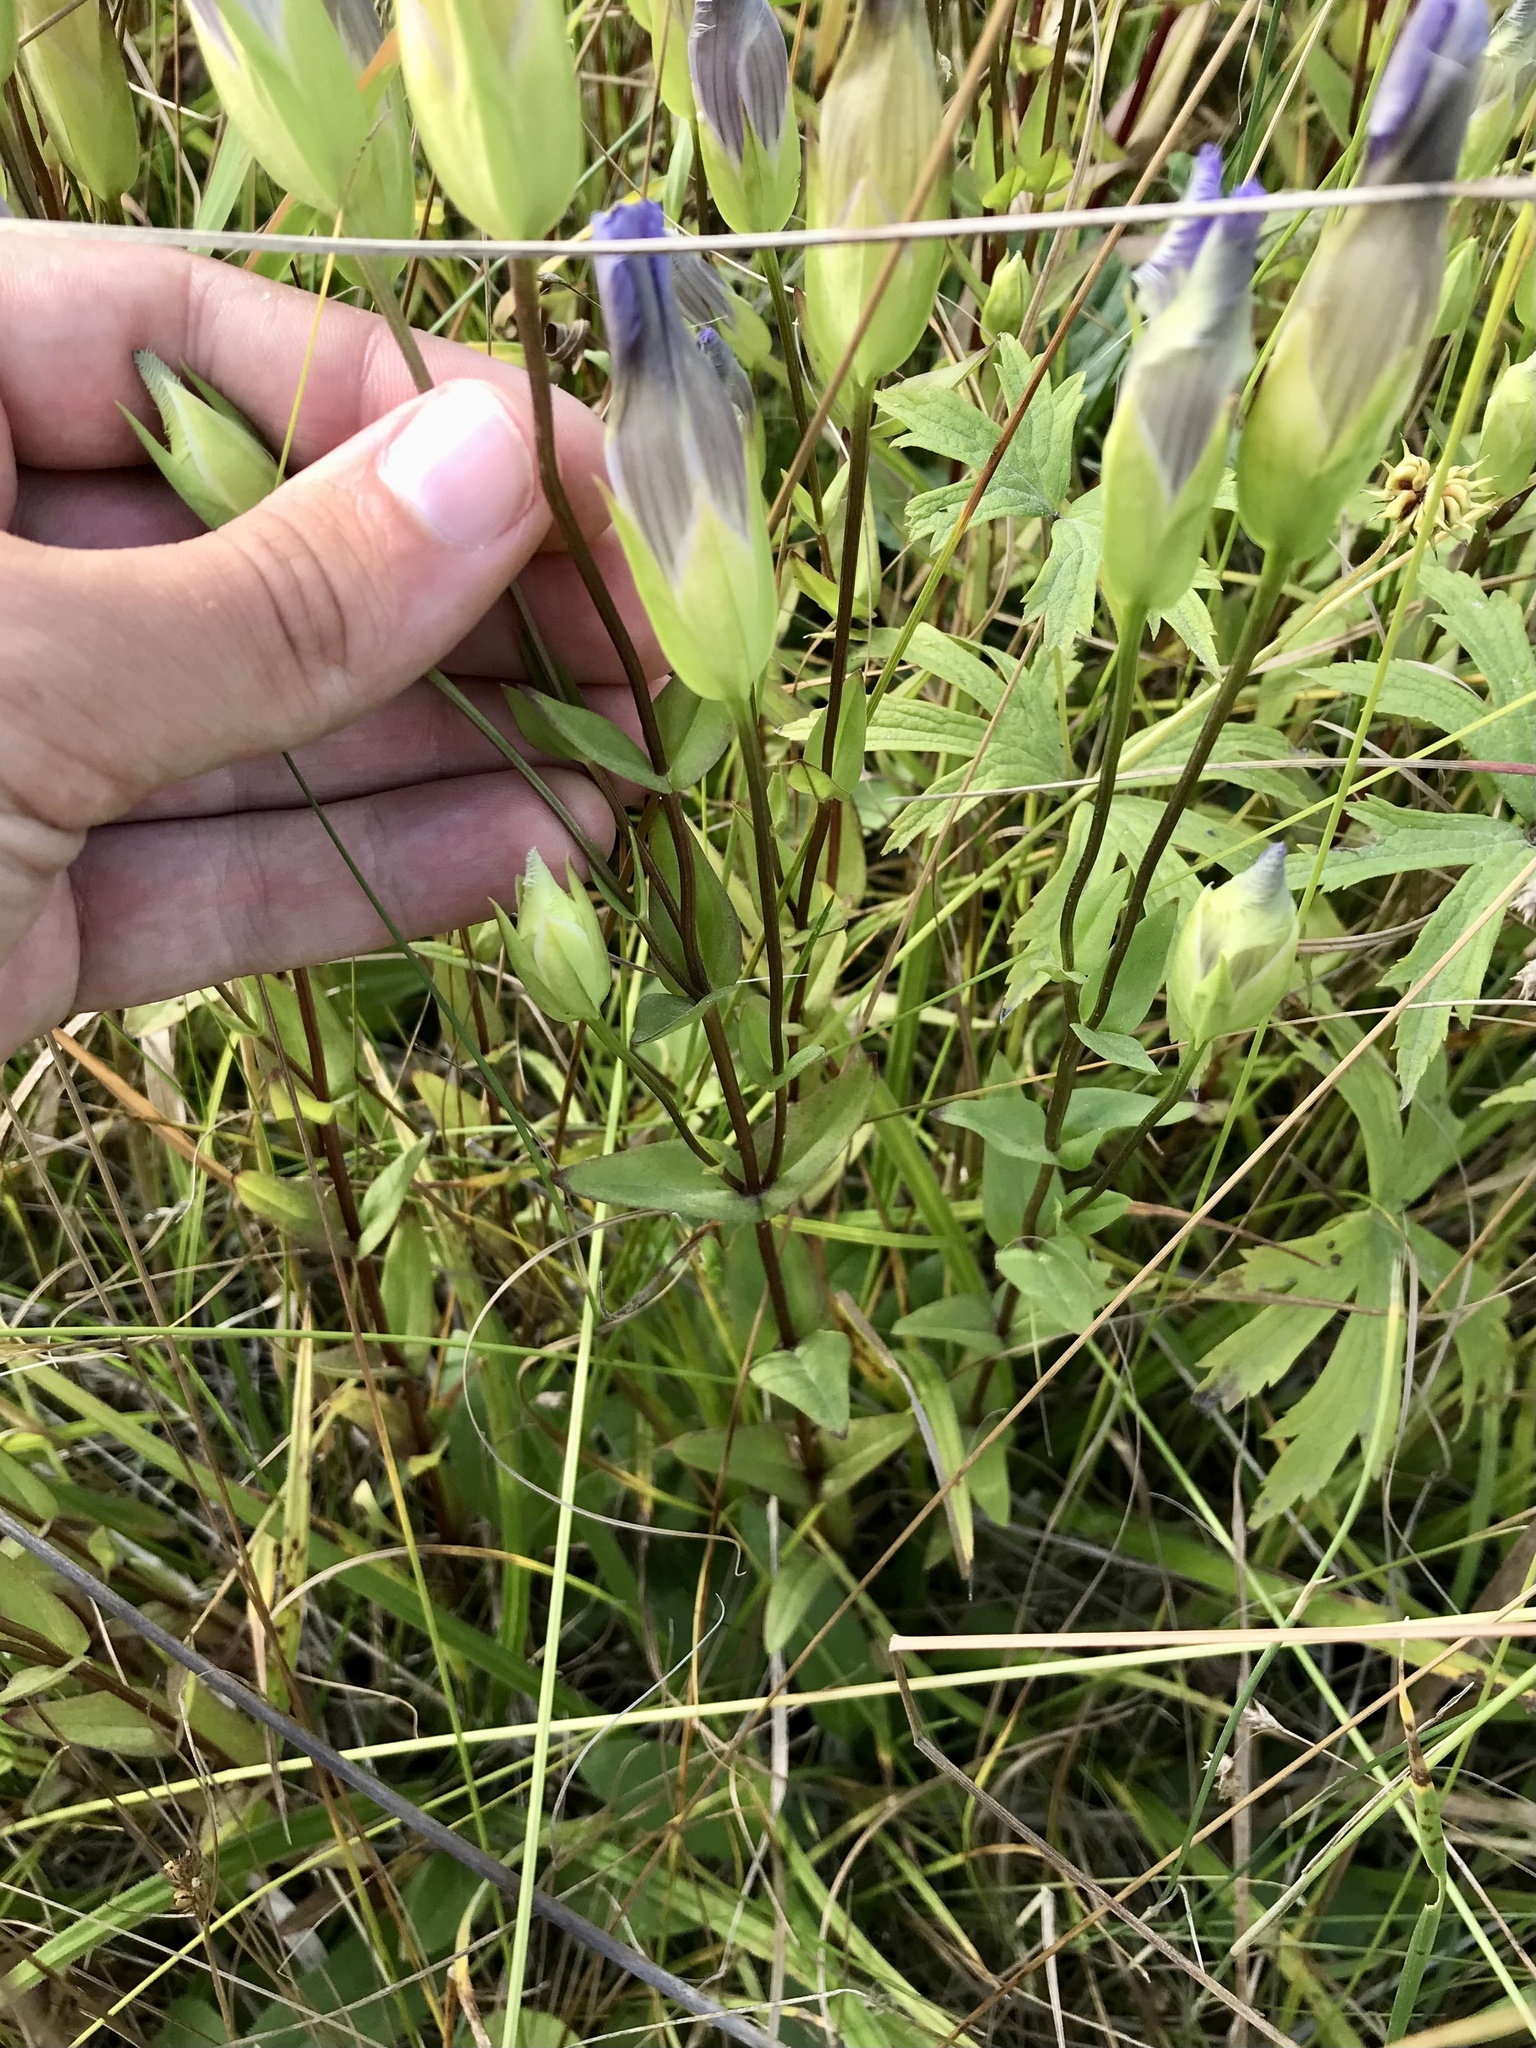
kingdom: Plantae
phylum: Tracheophyta
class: Magnoliopsida
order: Gentianales
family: Gentianaceae
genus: Gentianopsis
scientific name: Gentianopsis crinita
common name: Fringed-gentian
